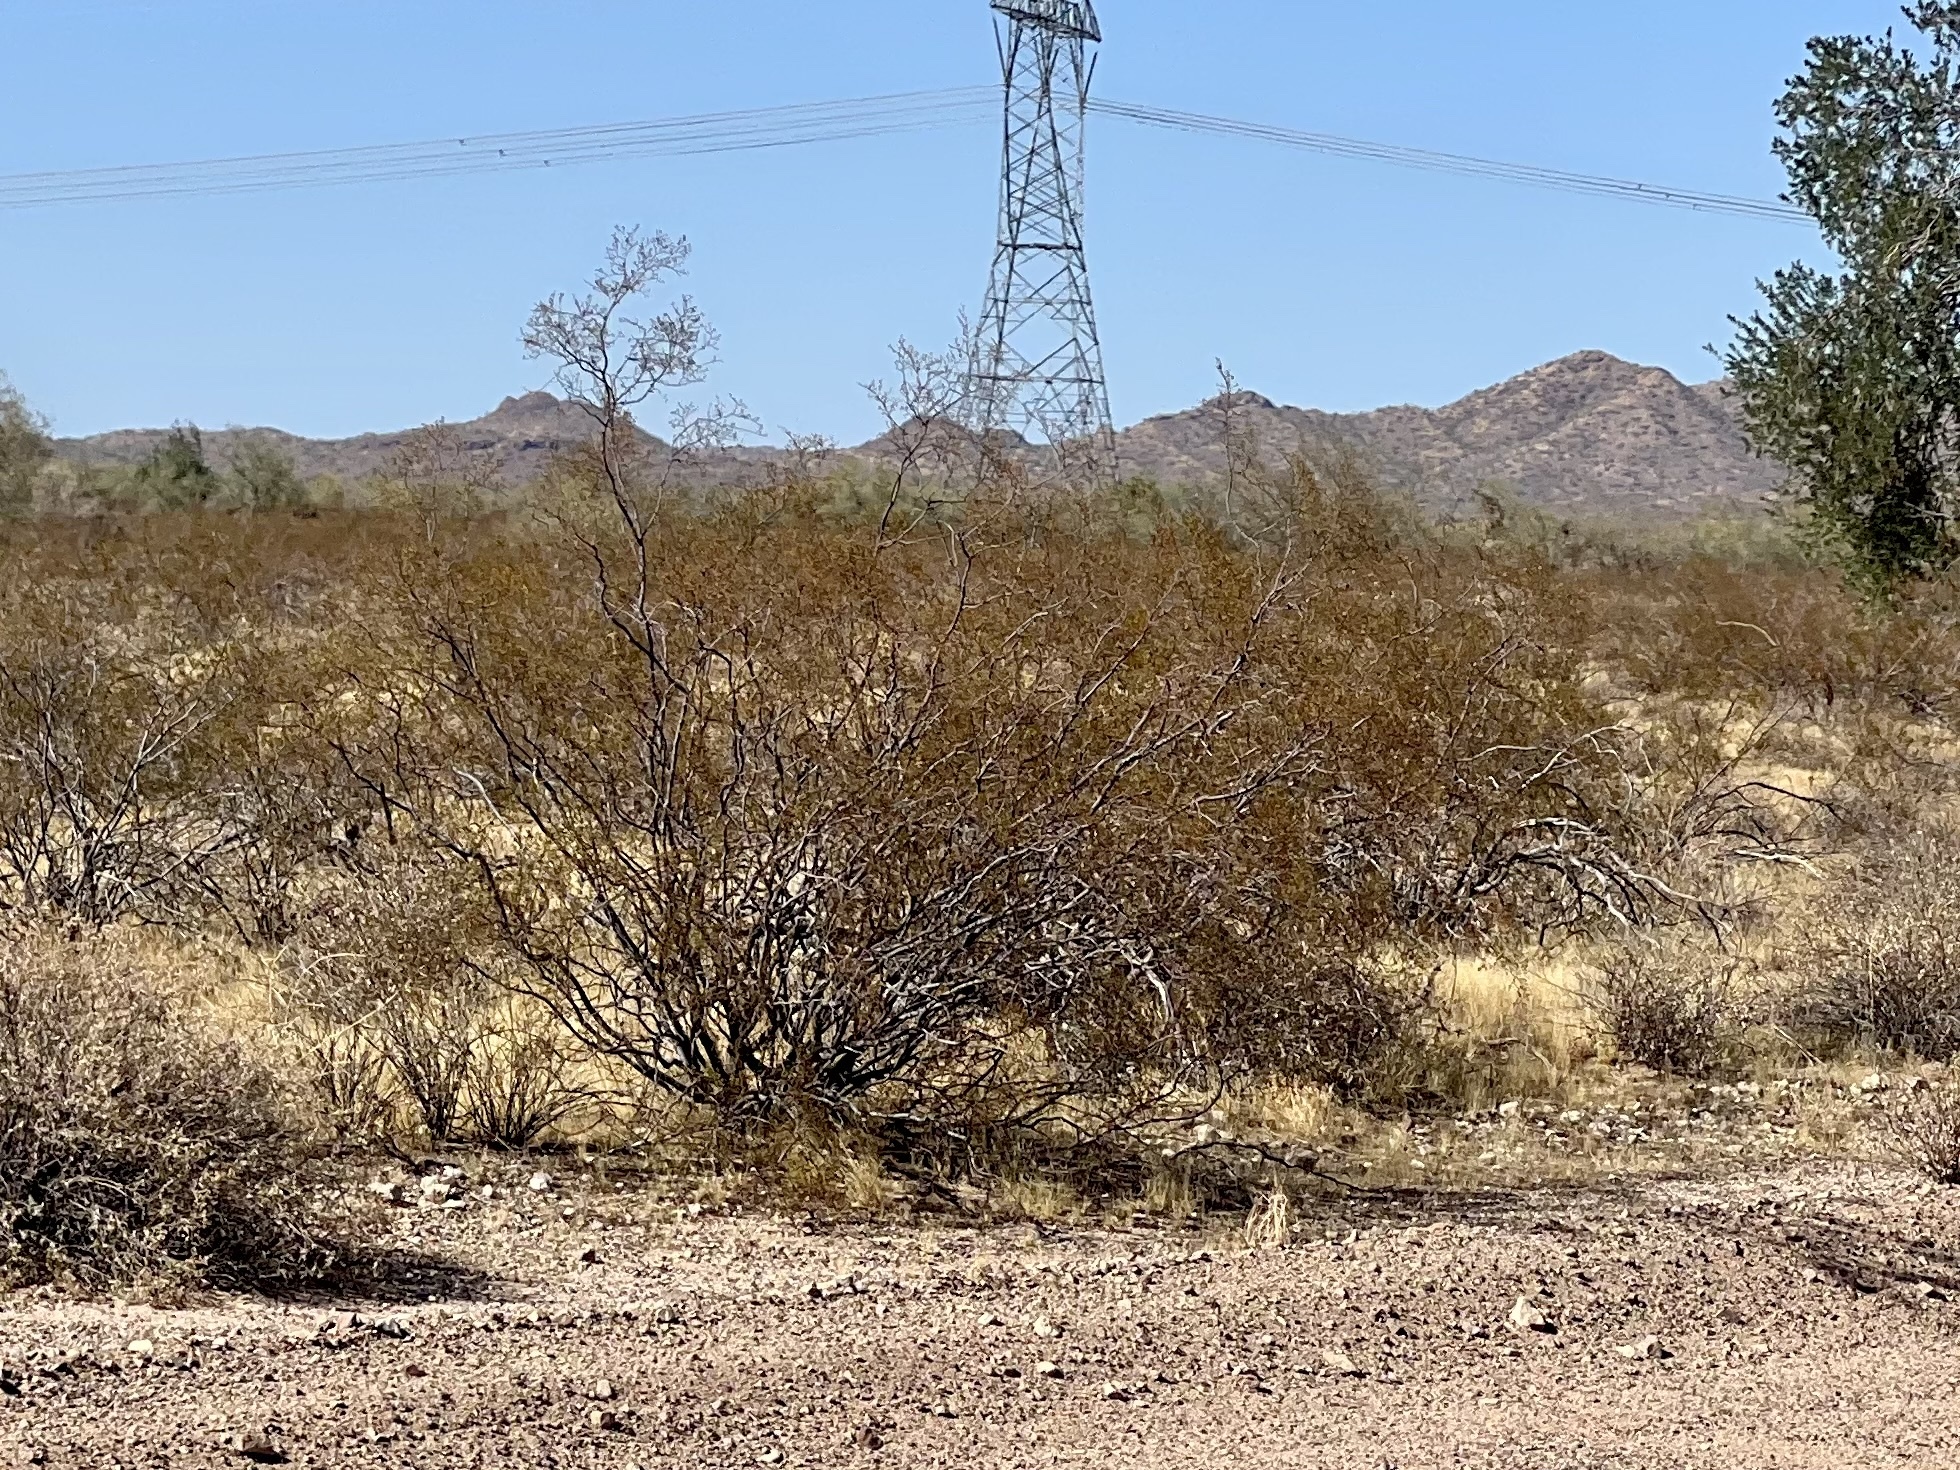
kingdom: Plantae
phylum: Tracheophyta
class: Magnoliopsida
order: Zygophyllales
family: Zygophyllaceae
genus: Larrea
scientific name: Larrea tridentata
